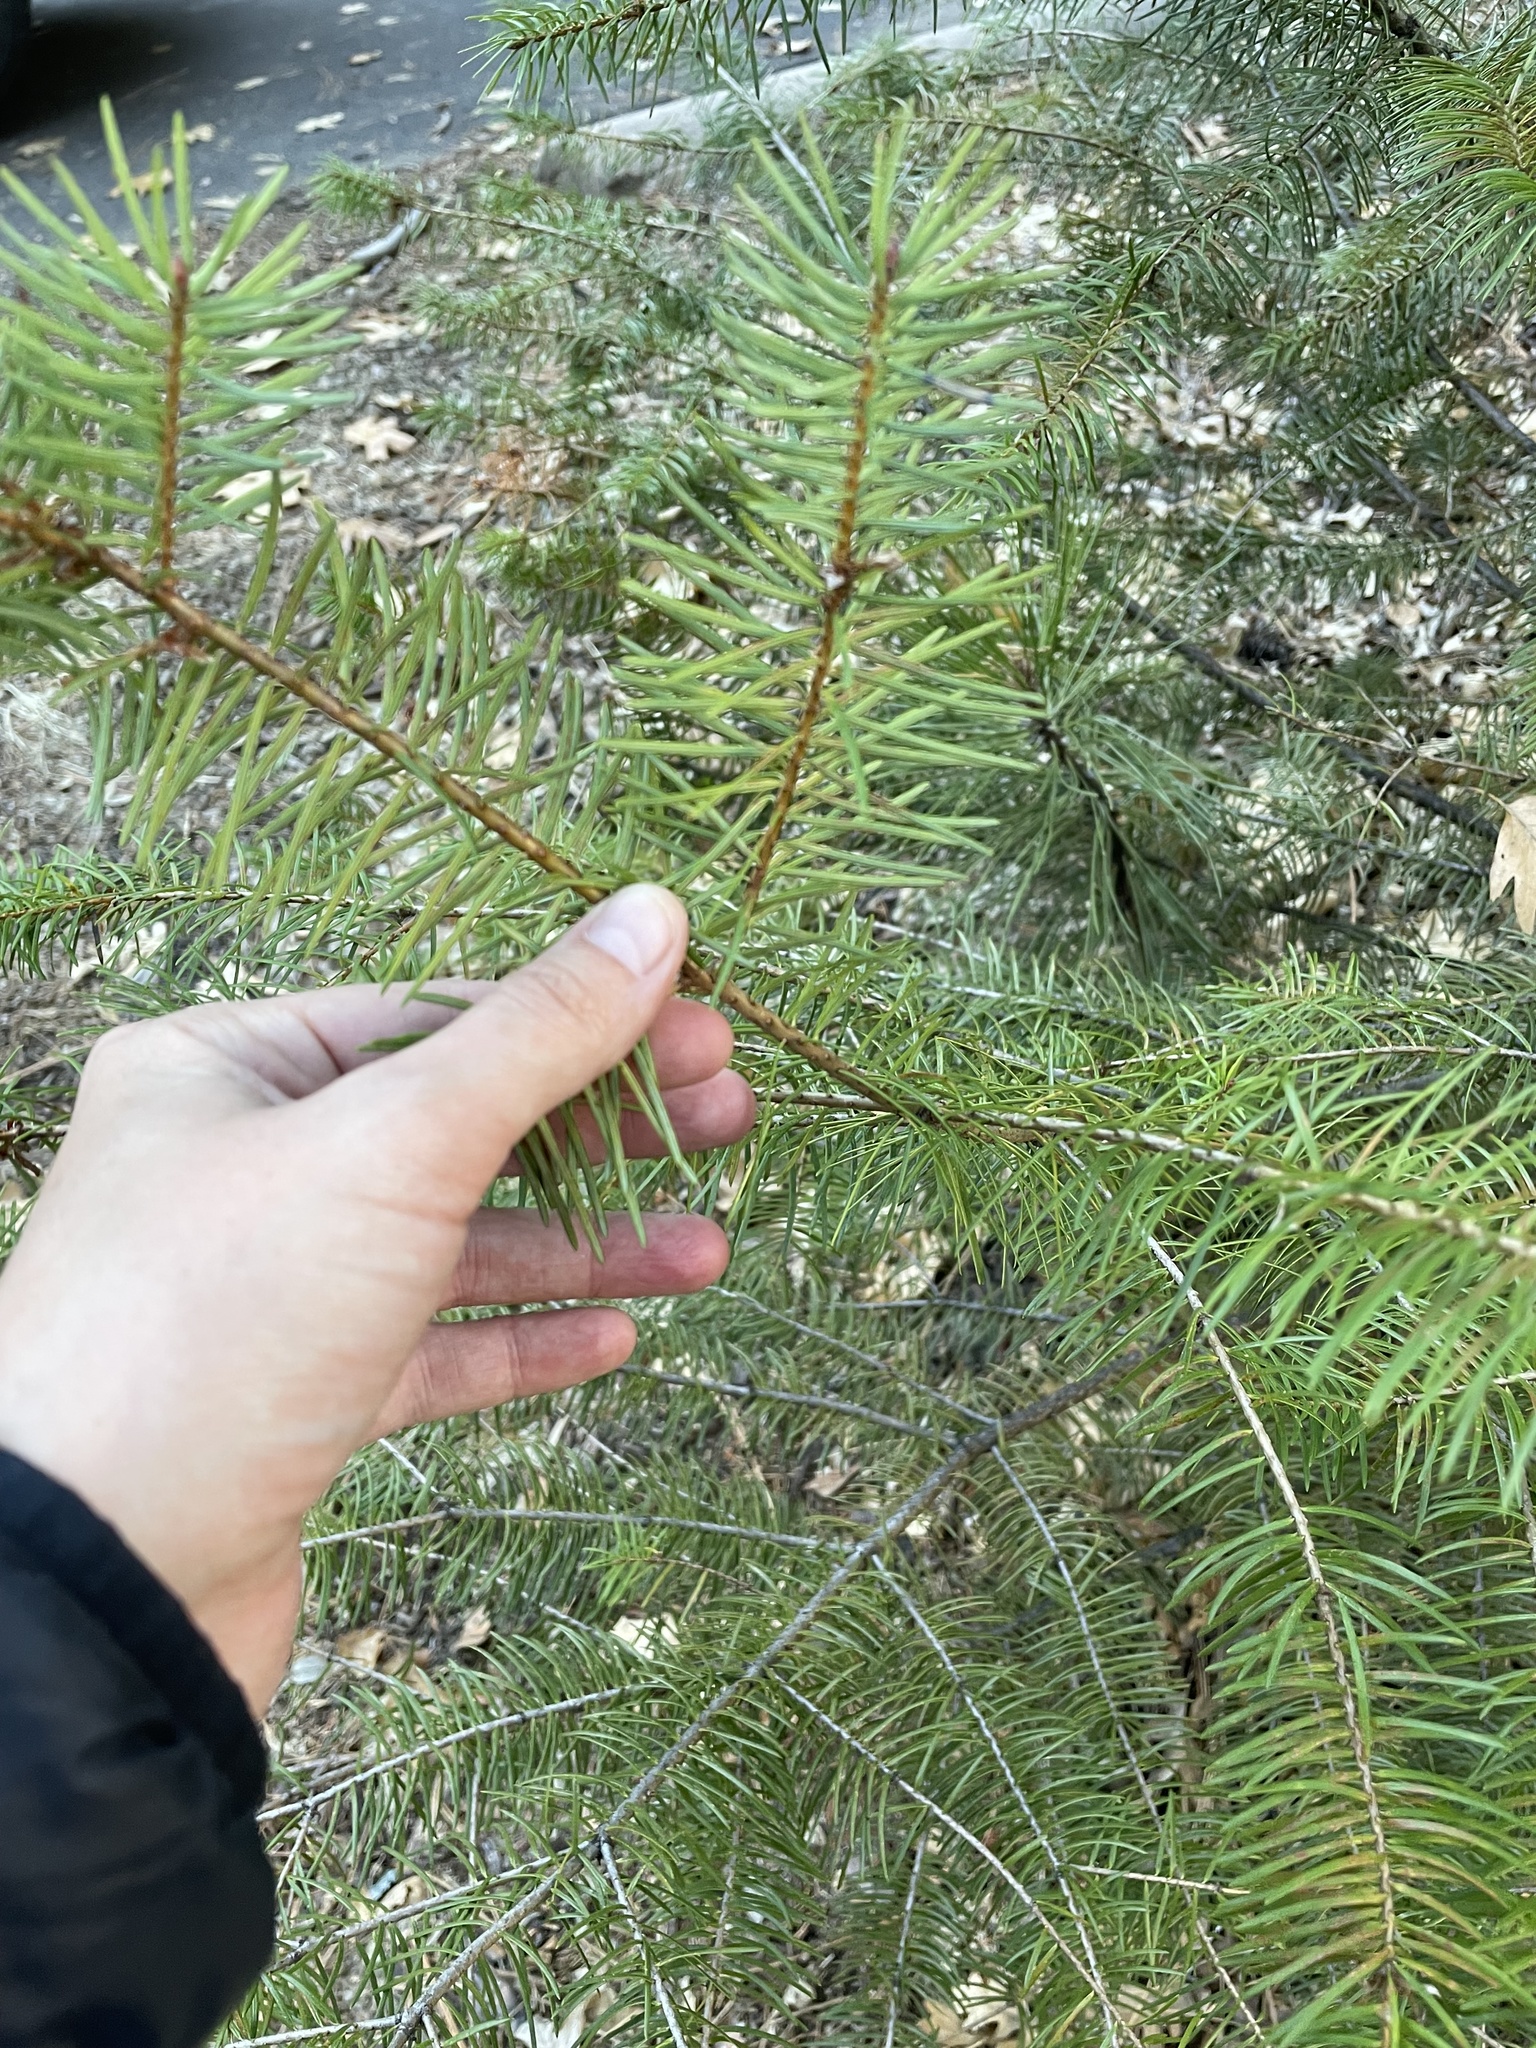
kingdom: Plantae
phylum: Tracheophyta
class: Pinopsida
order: Pinales
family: Pinaceae
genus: Pseudotsuga
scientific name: Pseudotsuga menziesii
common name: Douglas fir
